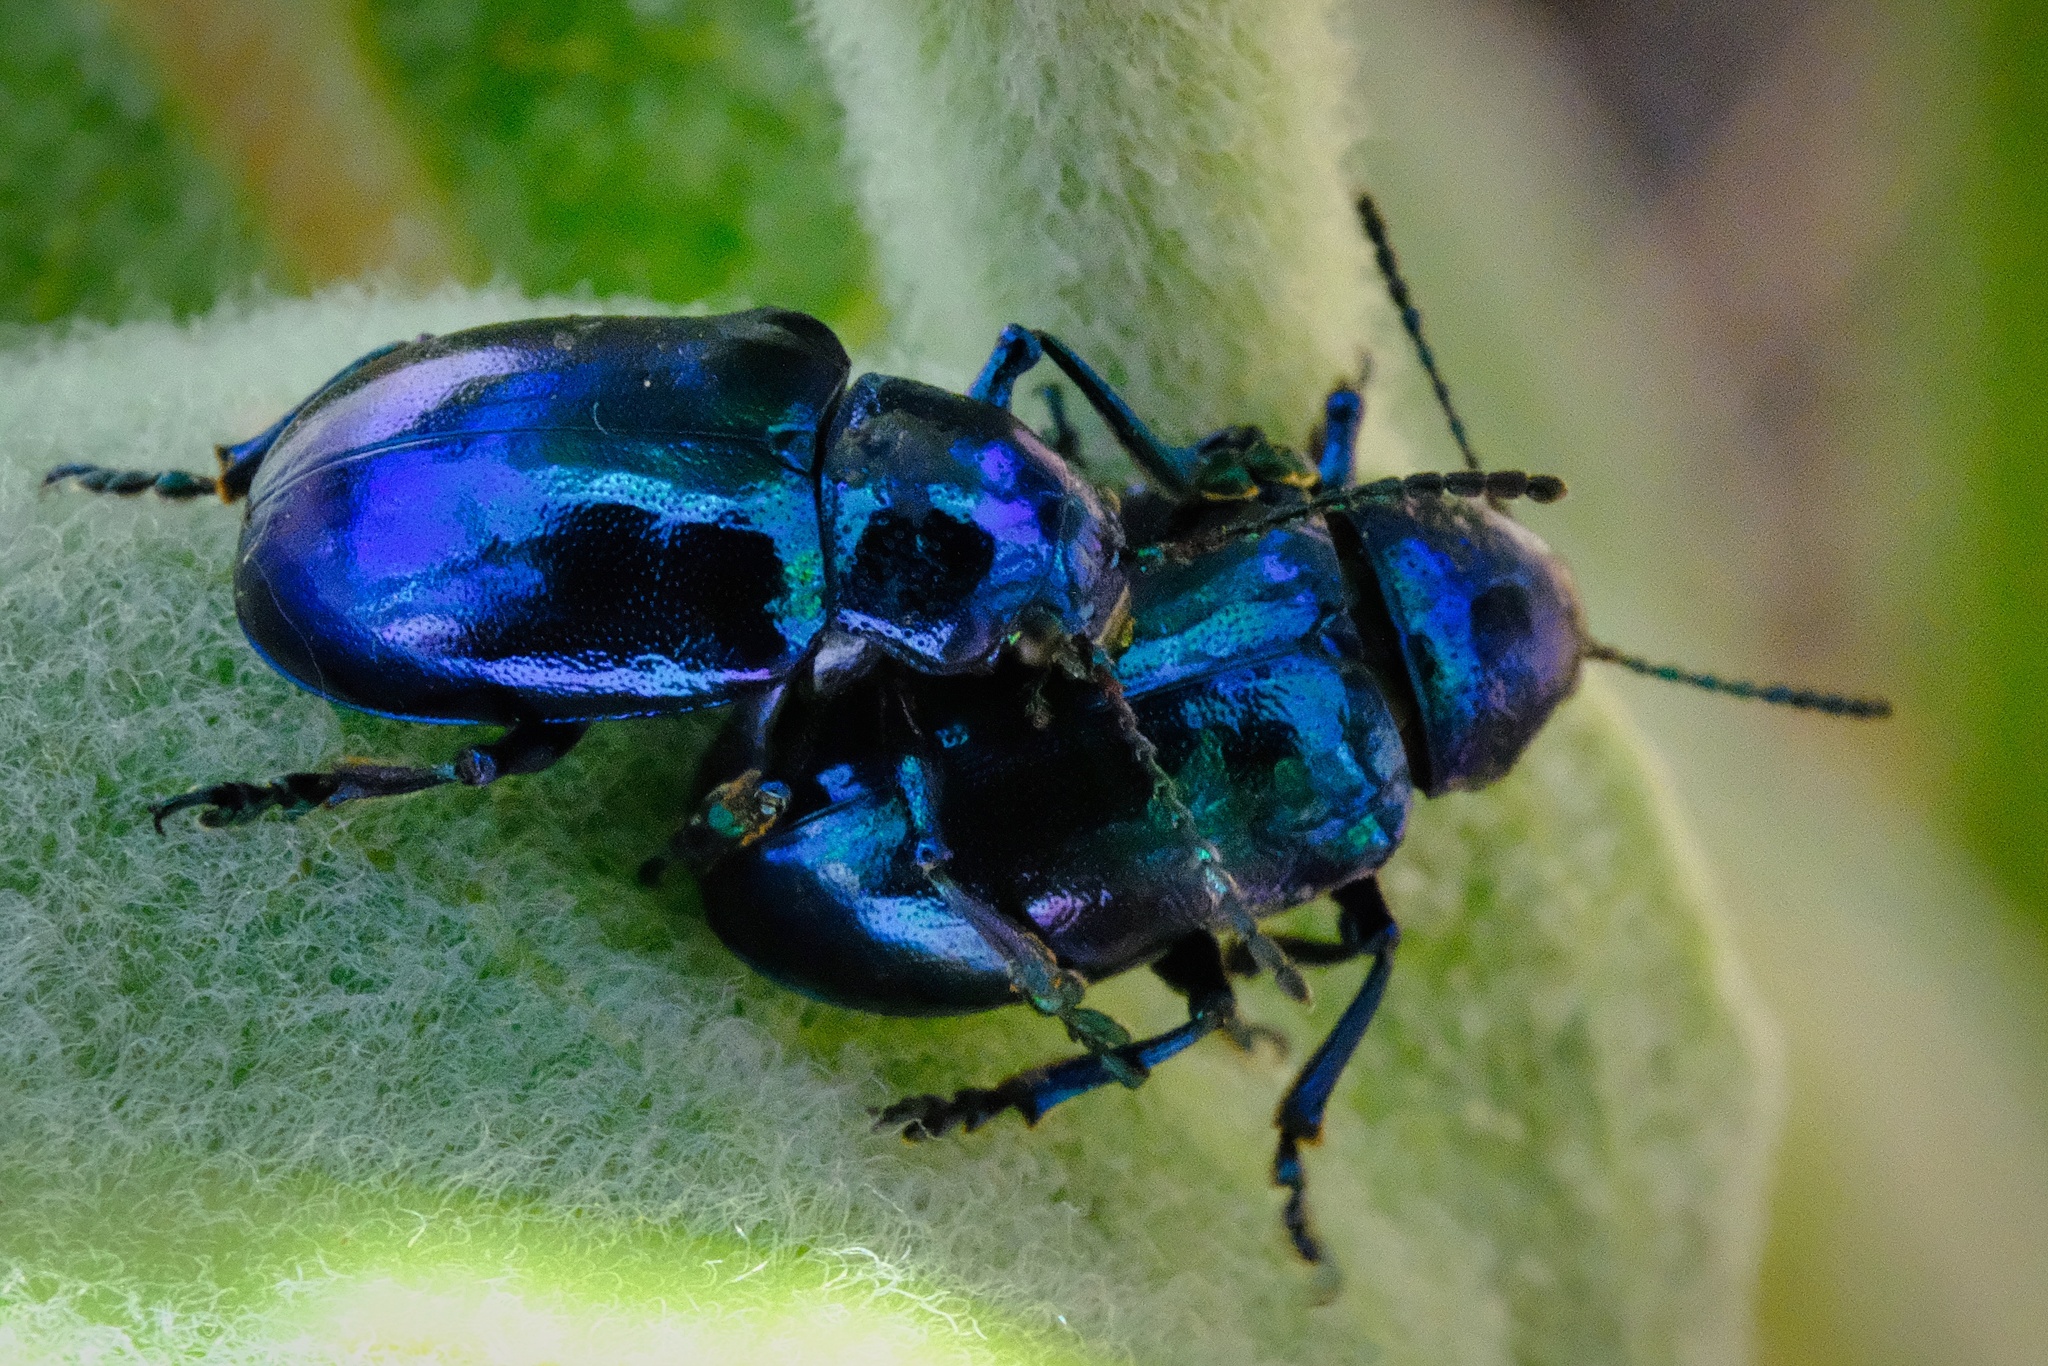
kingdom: Animalia
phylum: Arthropoda
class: Insecta
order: Coleoptera
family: Chrysomelidae
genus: Chrysochus
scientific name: Chrysochus cobaltinus
